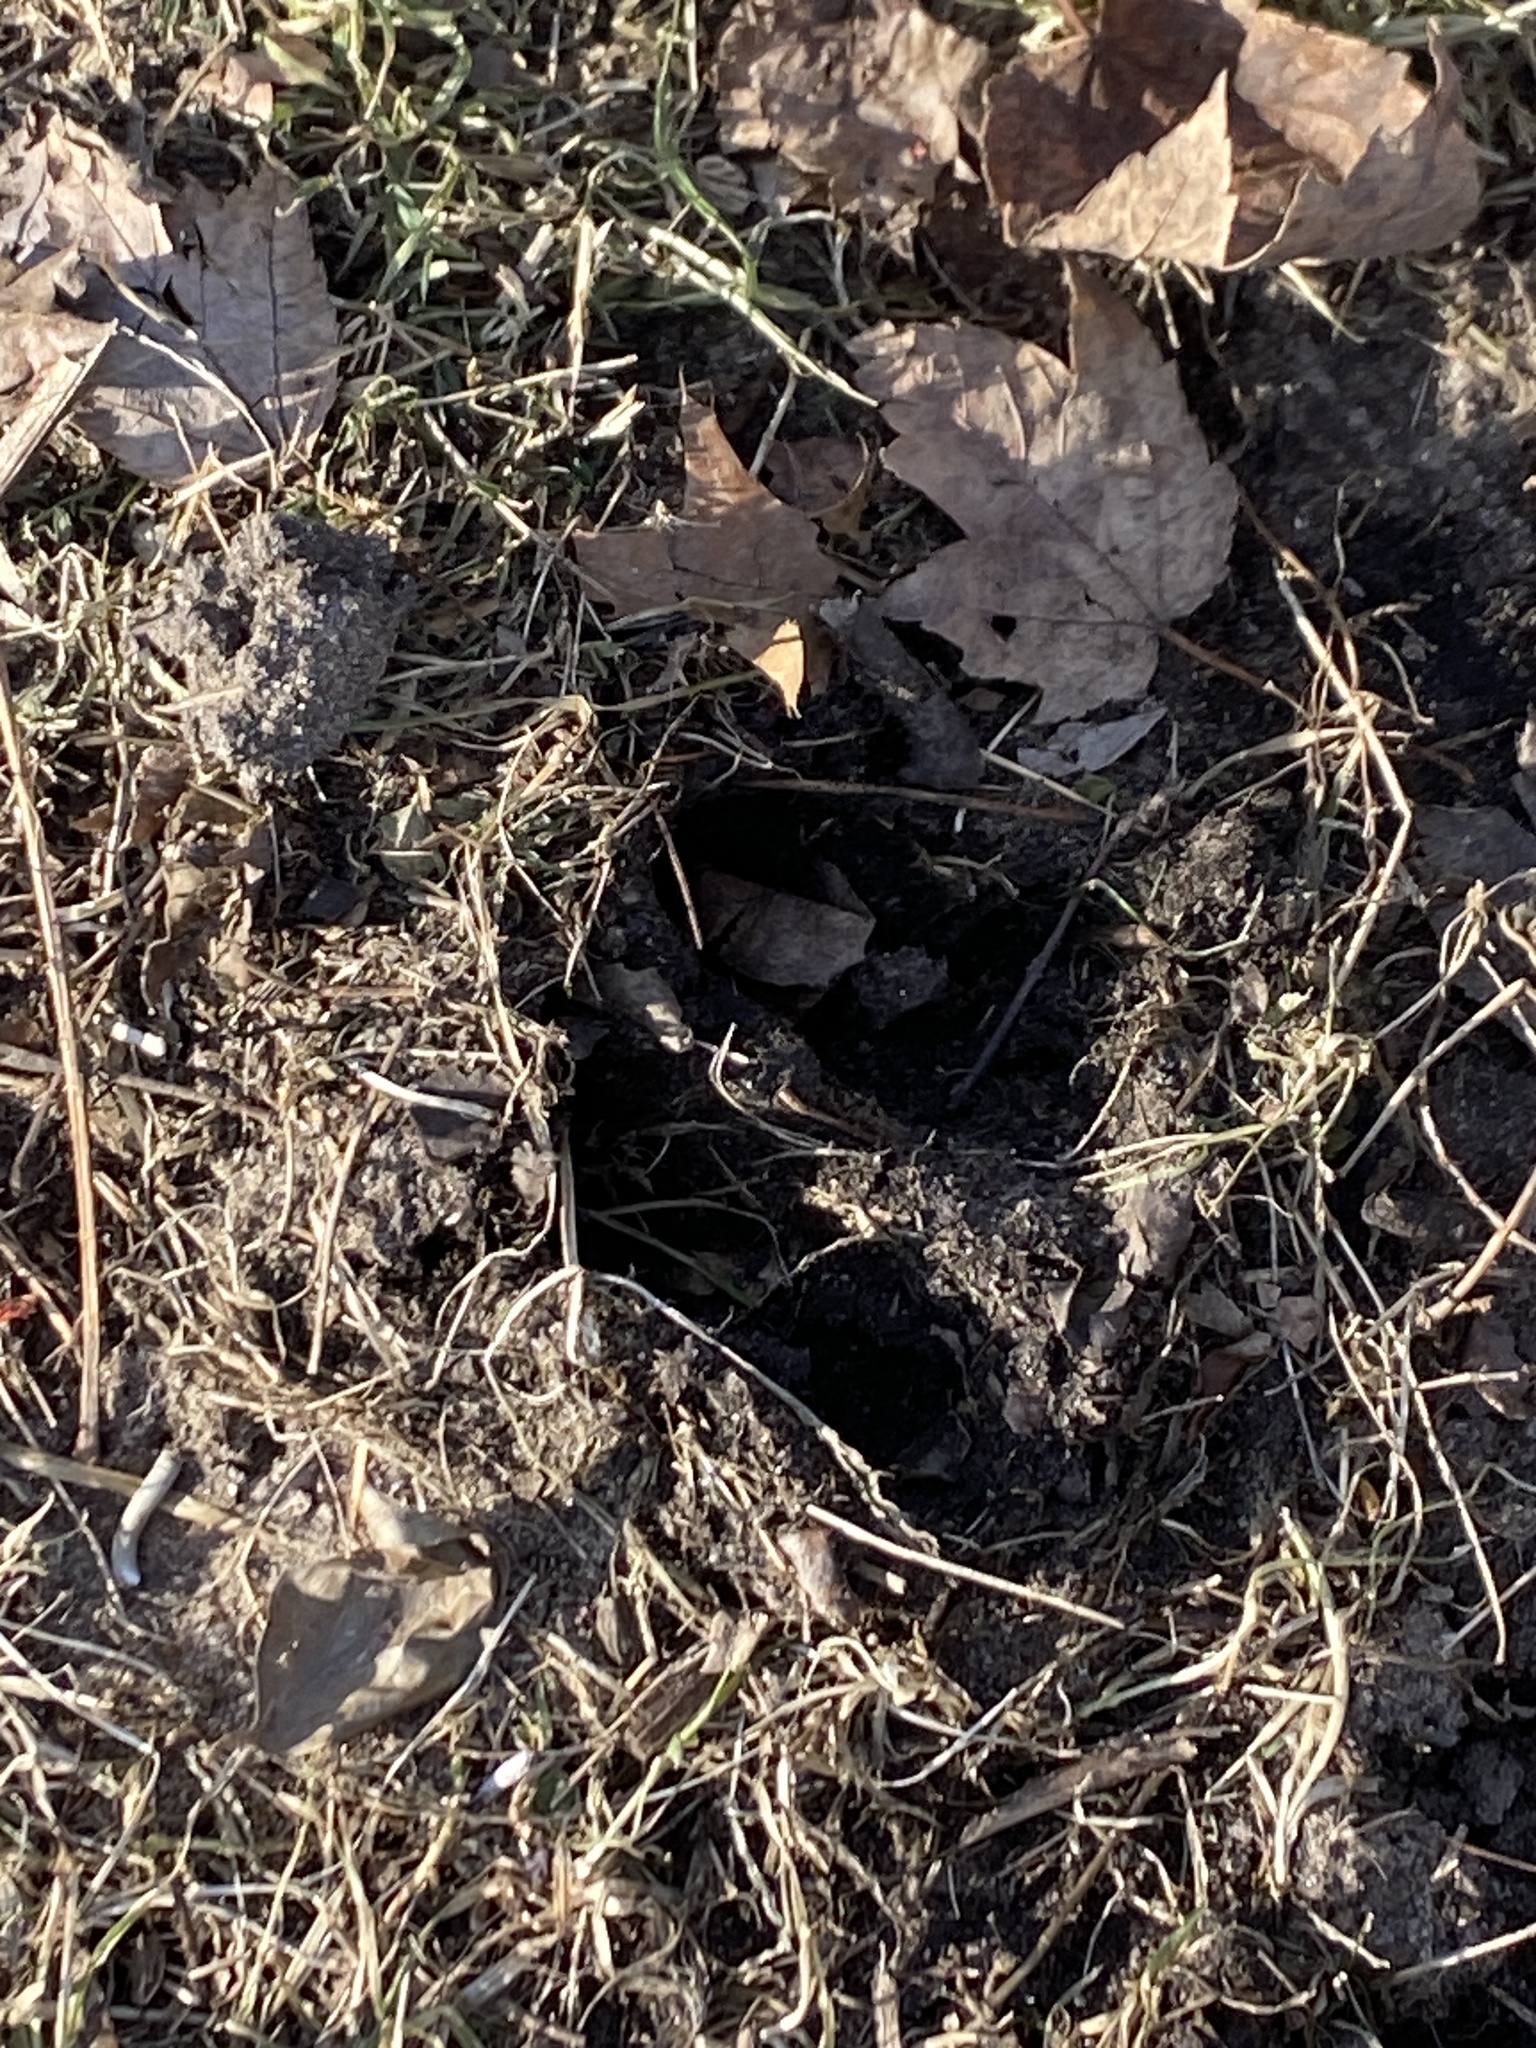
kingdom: Animalia
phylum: Chordata
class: Mammalia
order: Artiodactyla
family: Cervidae
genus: Odocoileus
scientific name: Odocoileus virginianus
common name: White-tailed deer
